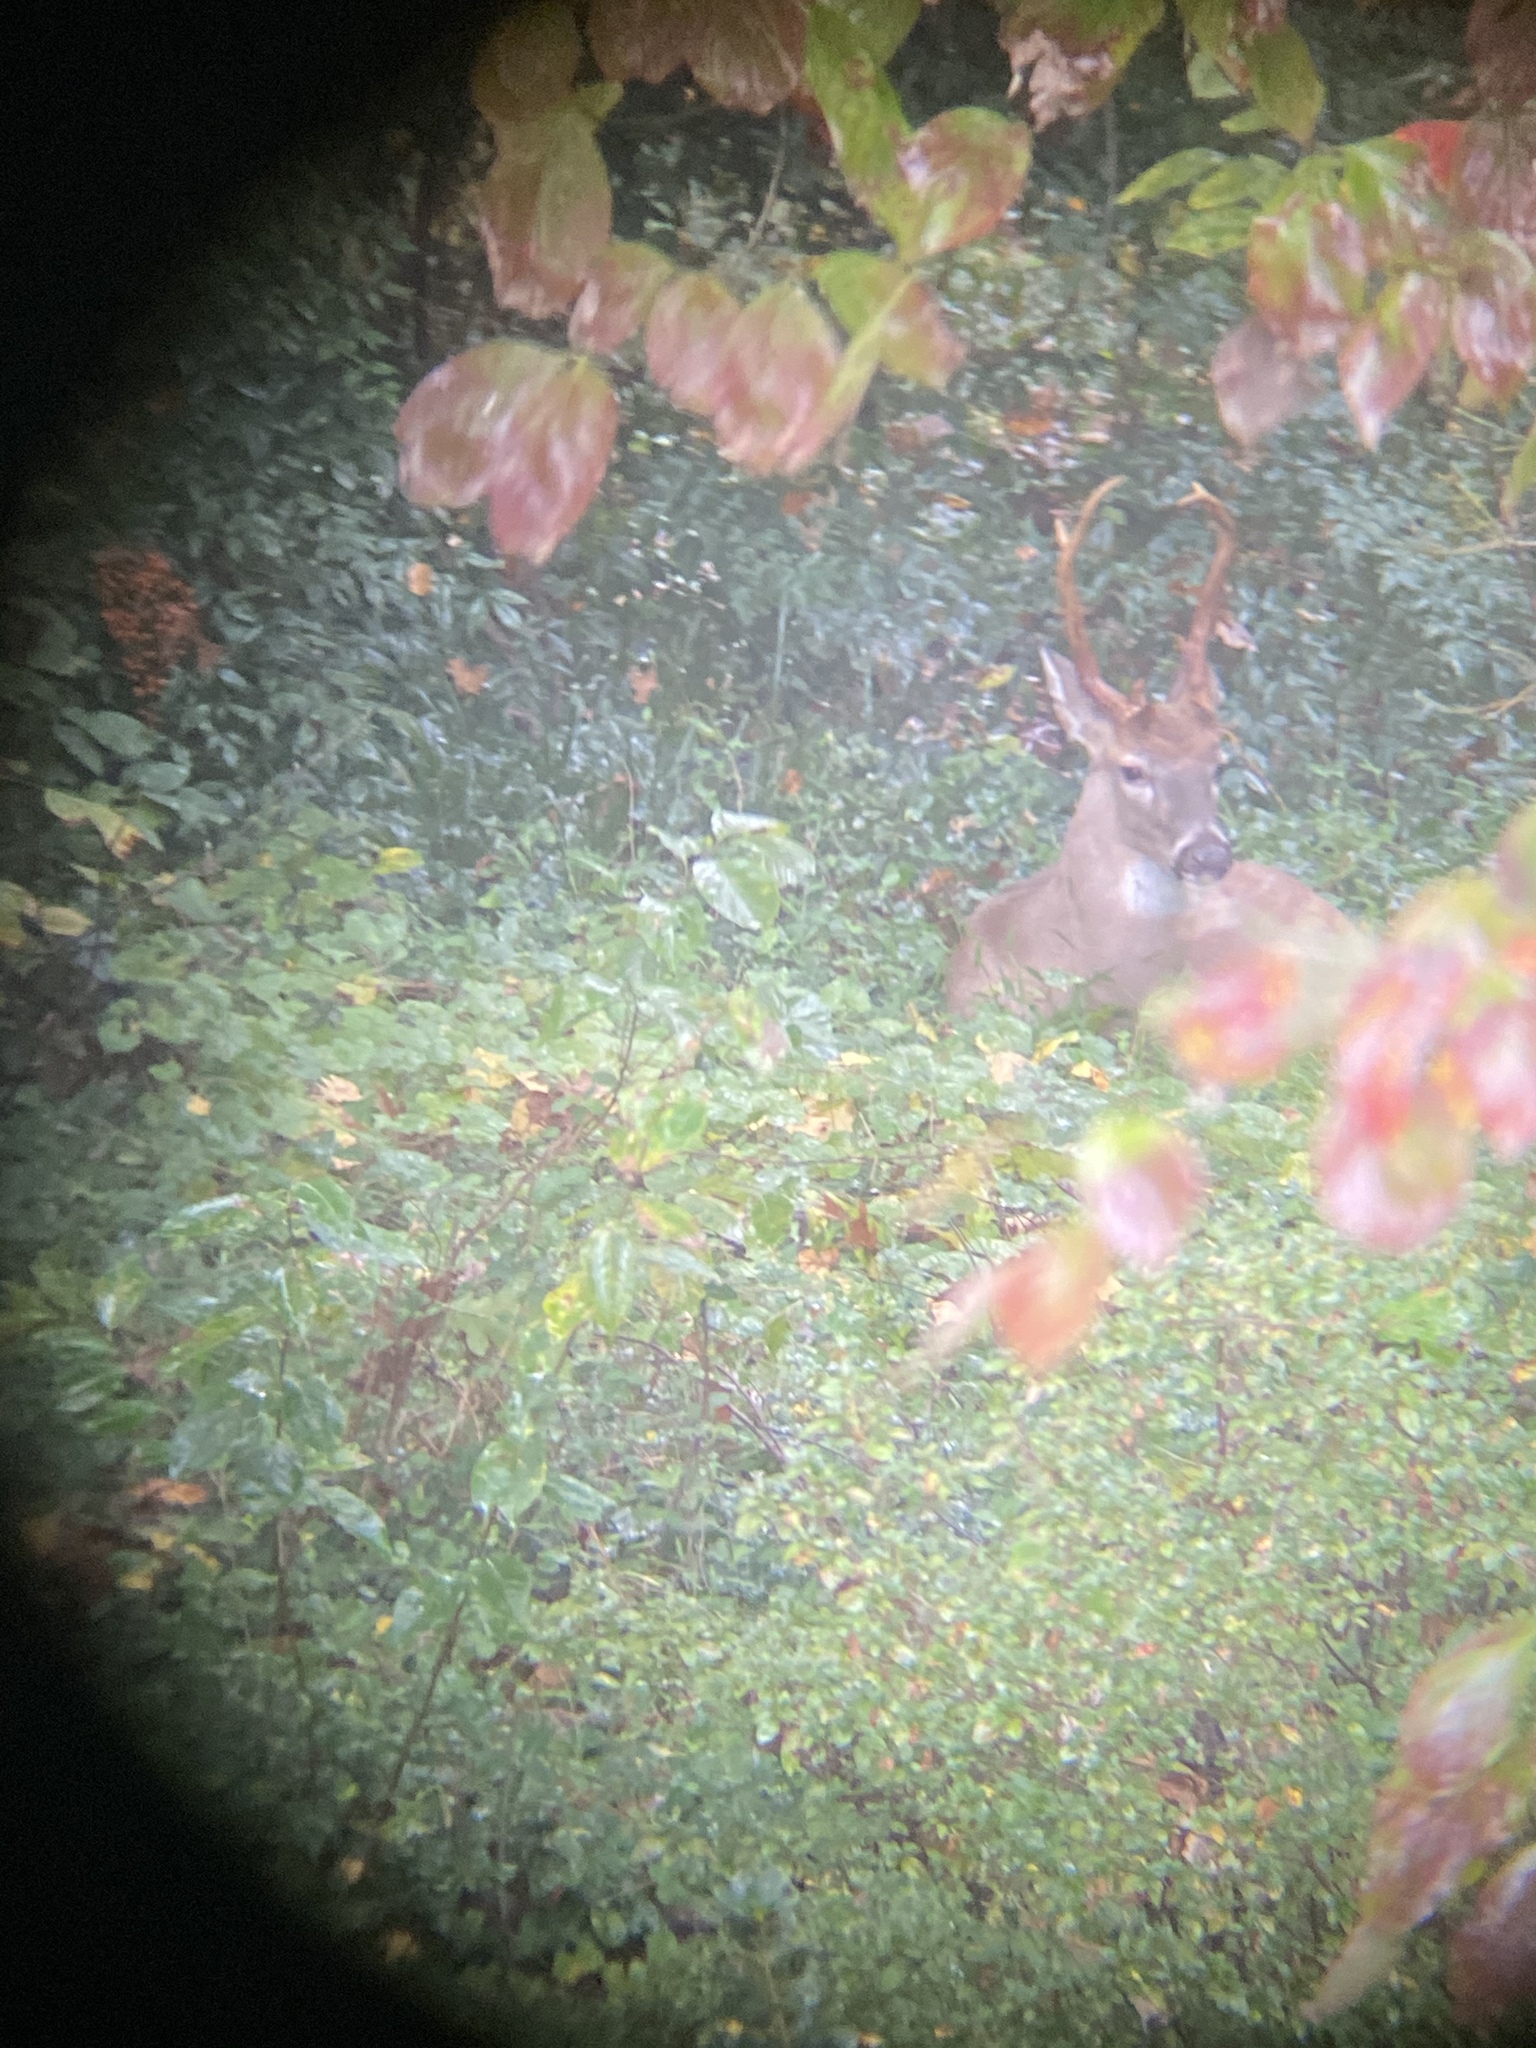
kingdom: Animalia
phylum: Chordata
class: Mammalia
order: Artiodactyla
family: Cervidae
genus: Odocoileus
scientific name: Odocoileus virginianus
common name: White-tailed deer
